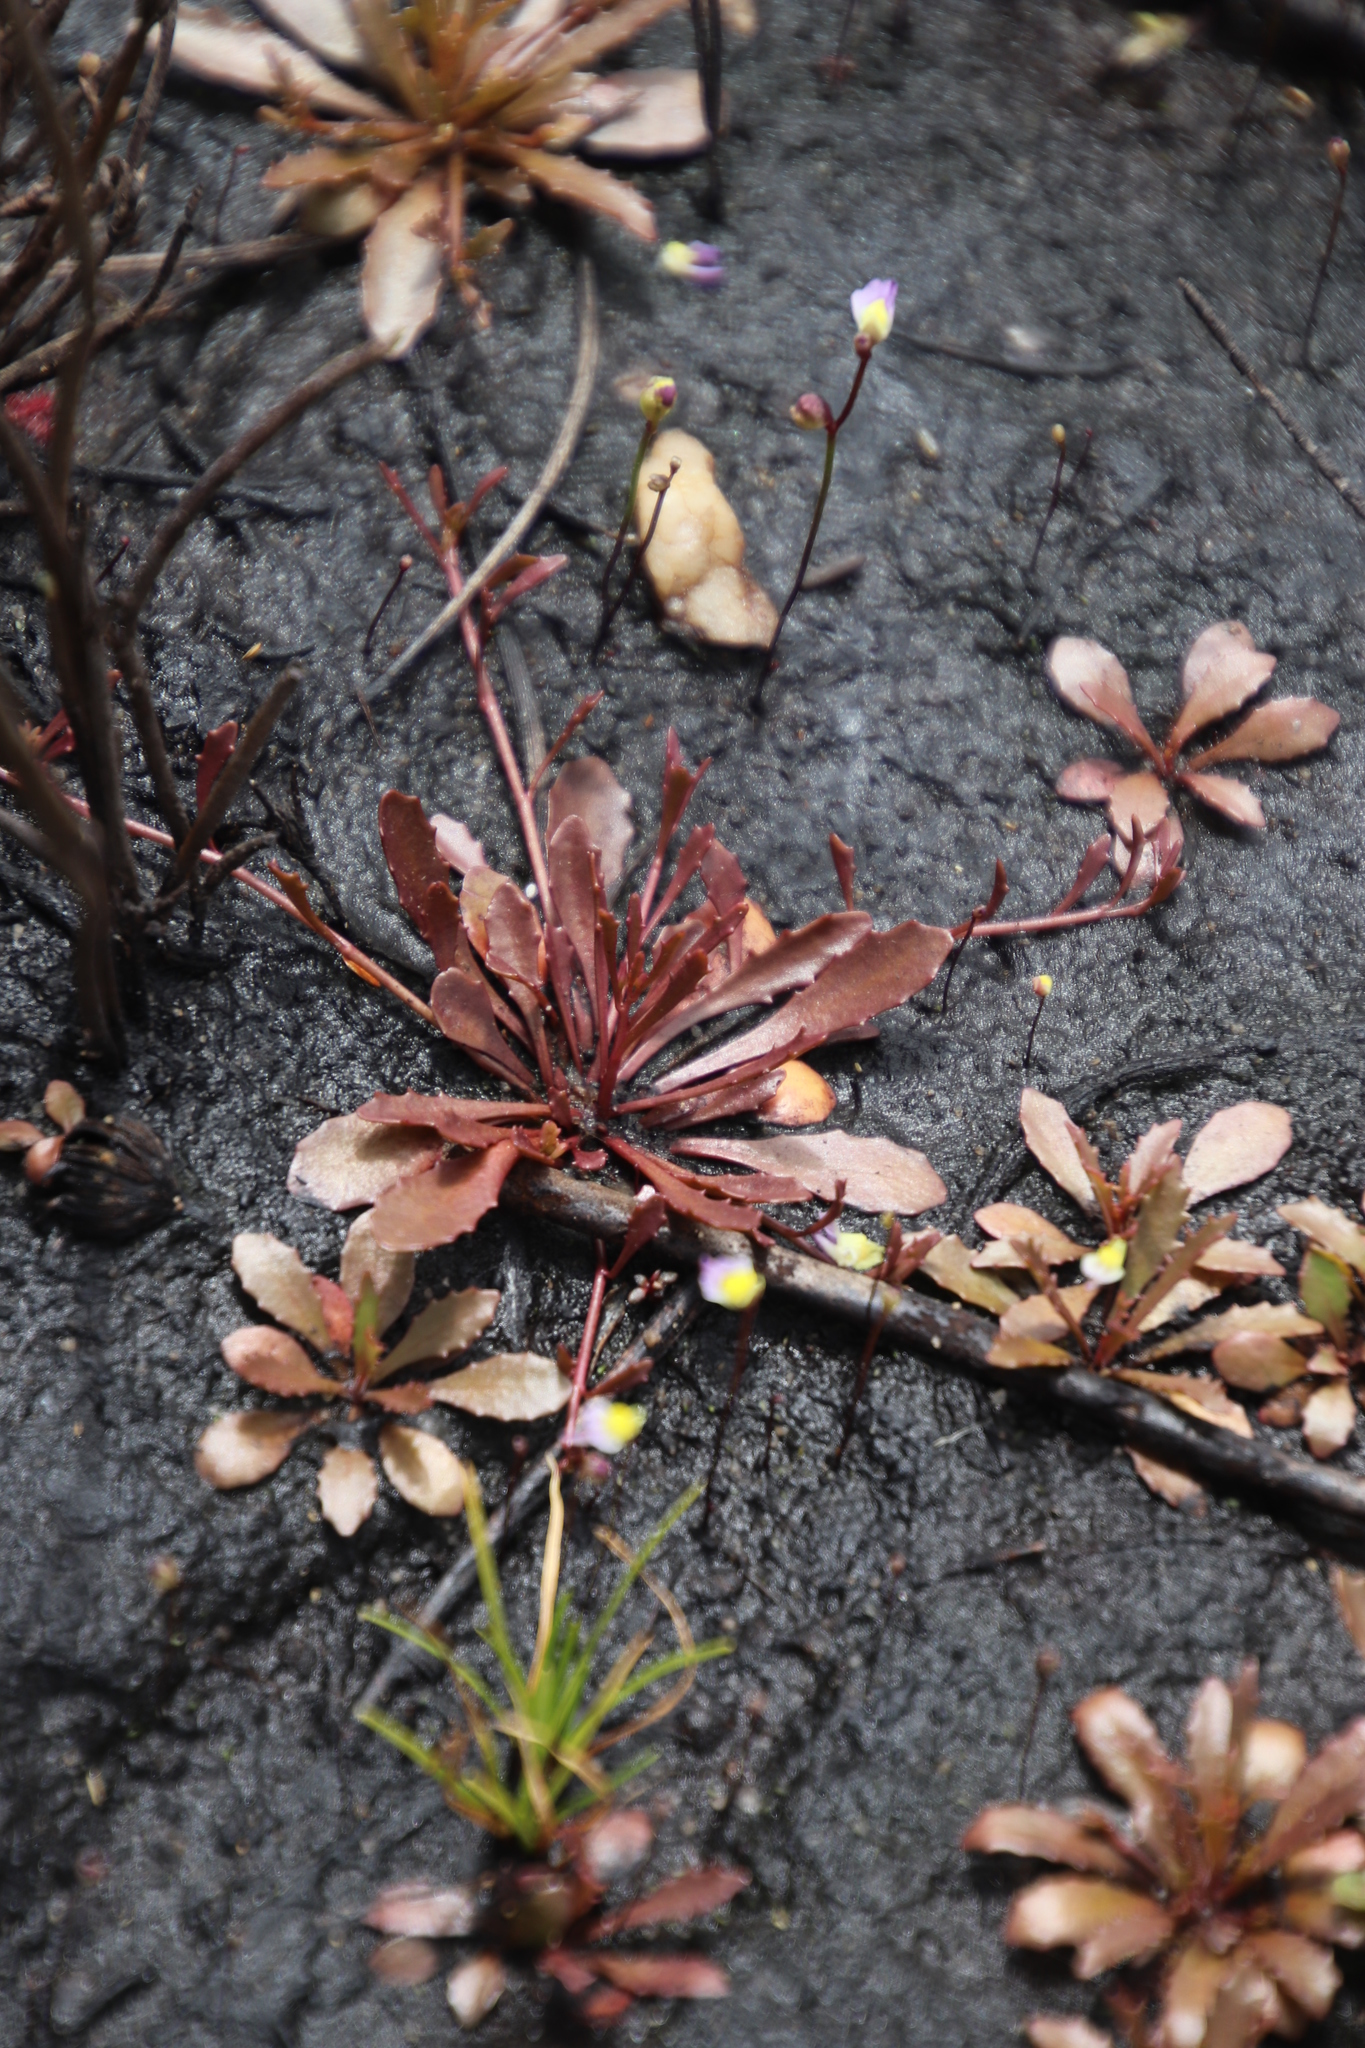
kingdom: Plantae
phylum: Tracheophyta
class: Magnoliopsida
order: Asterales
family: Campanulaceae
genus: Wimmerella
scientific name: Wimmerella secunda
